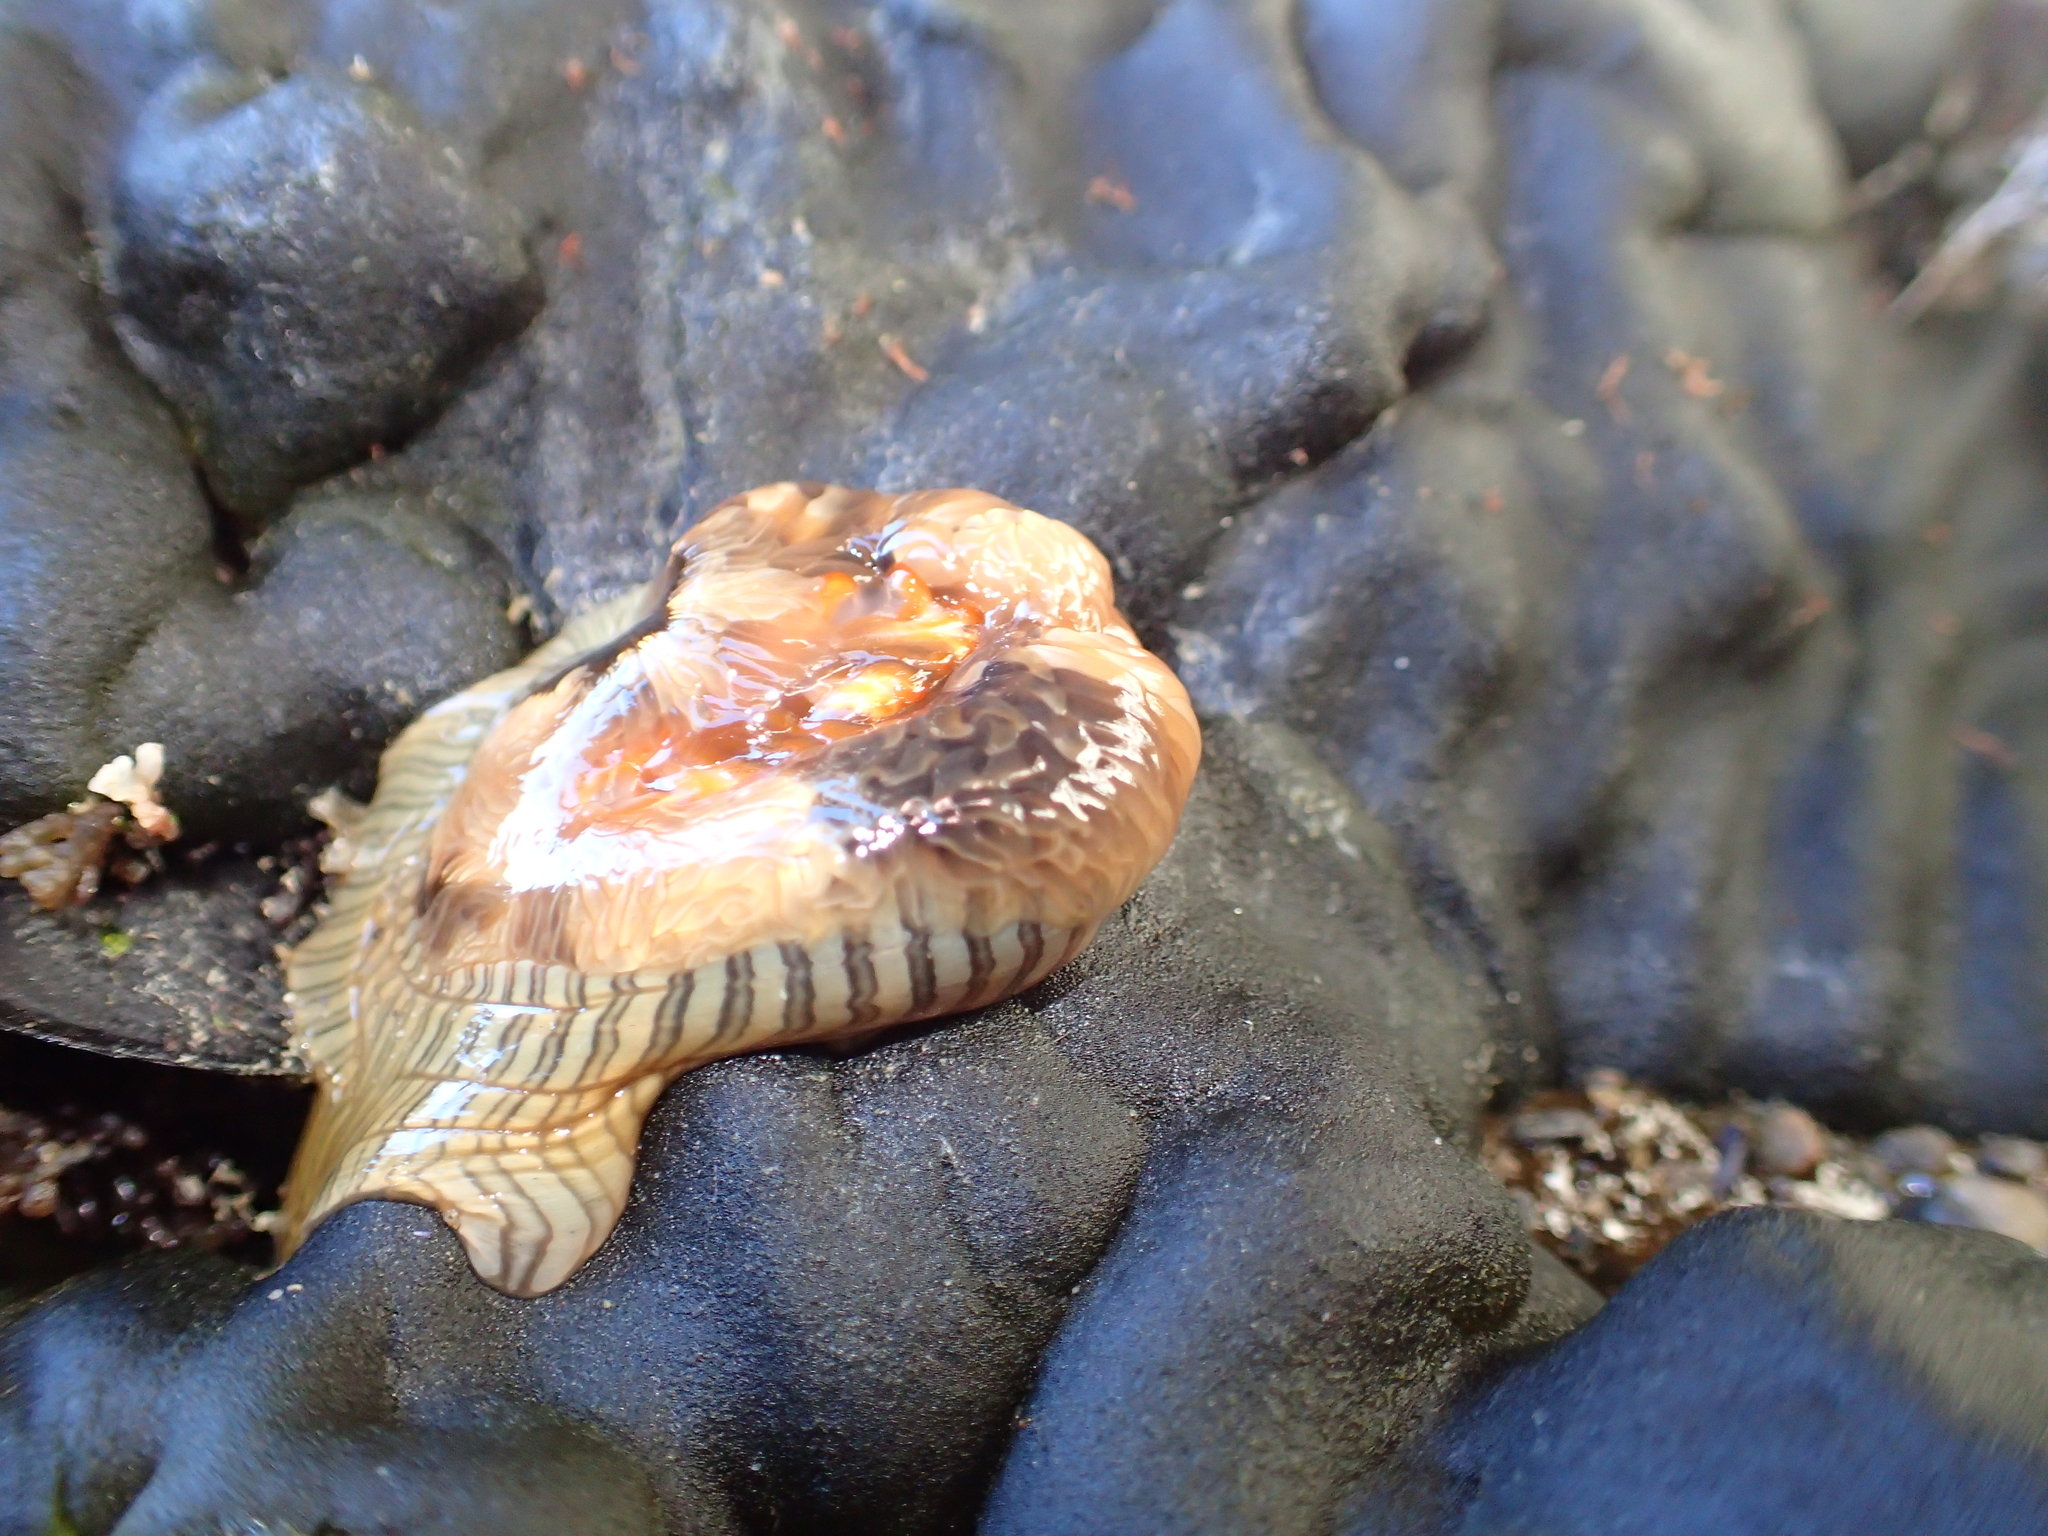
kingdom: Animalia
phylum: Cnidaria
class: Anthozoa
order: Actiniaria
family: Diadumenidae
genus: Diadumene
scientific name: Diadumene neozelanica
